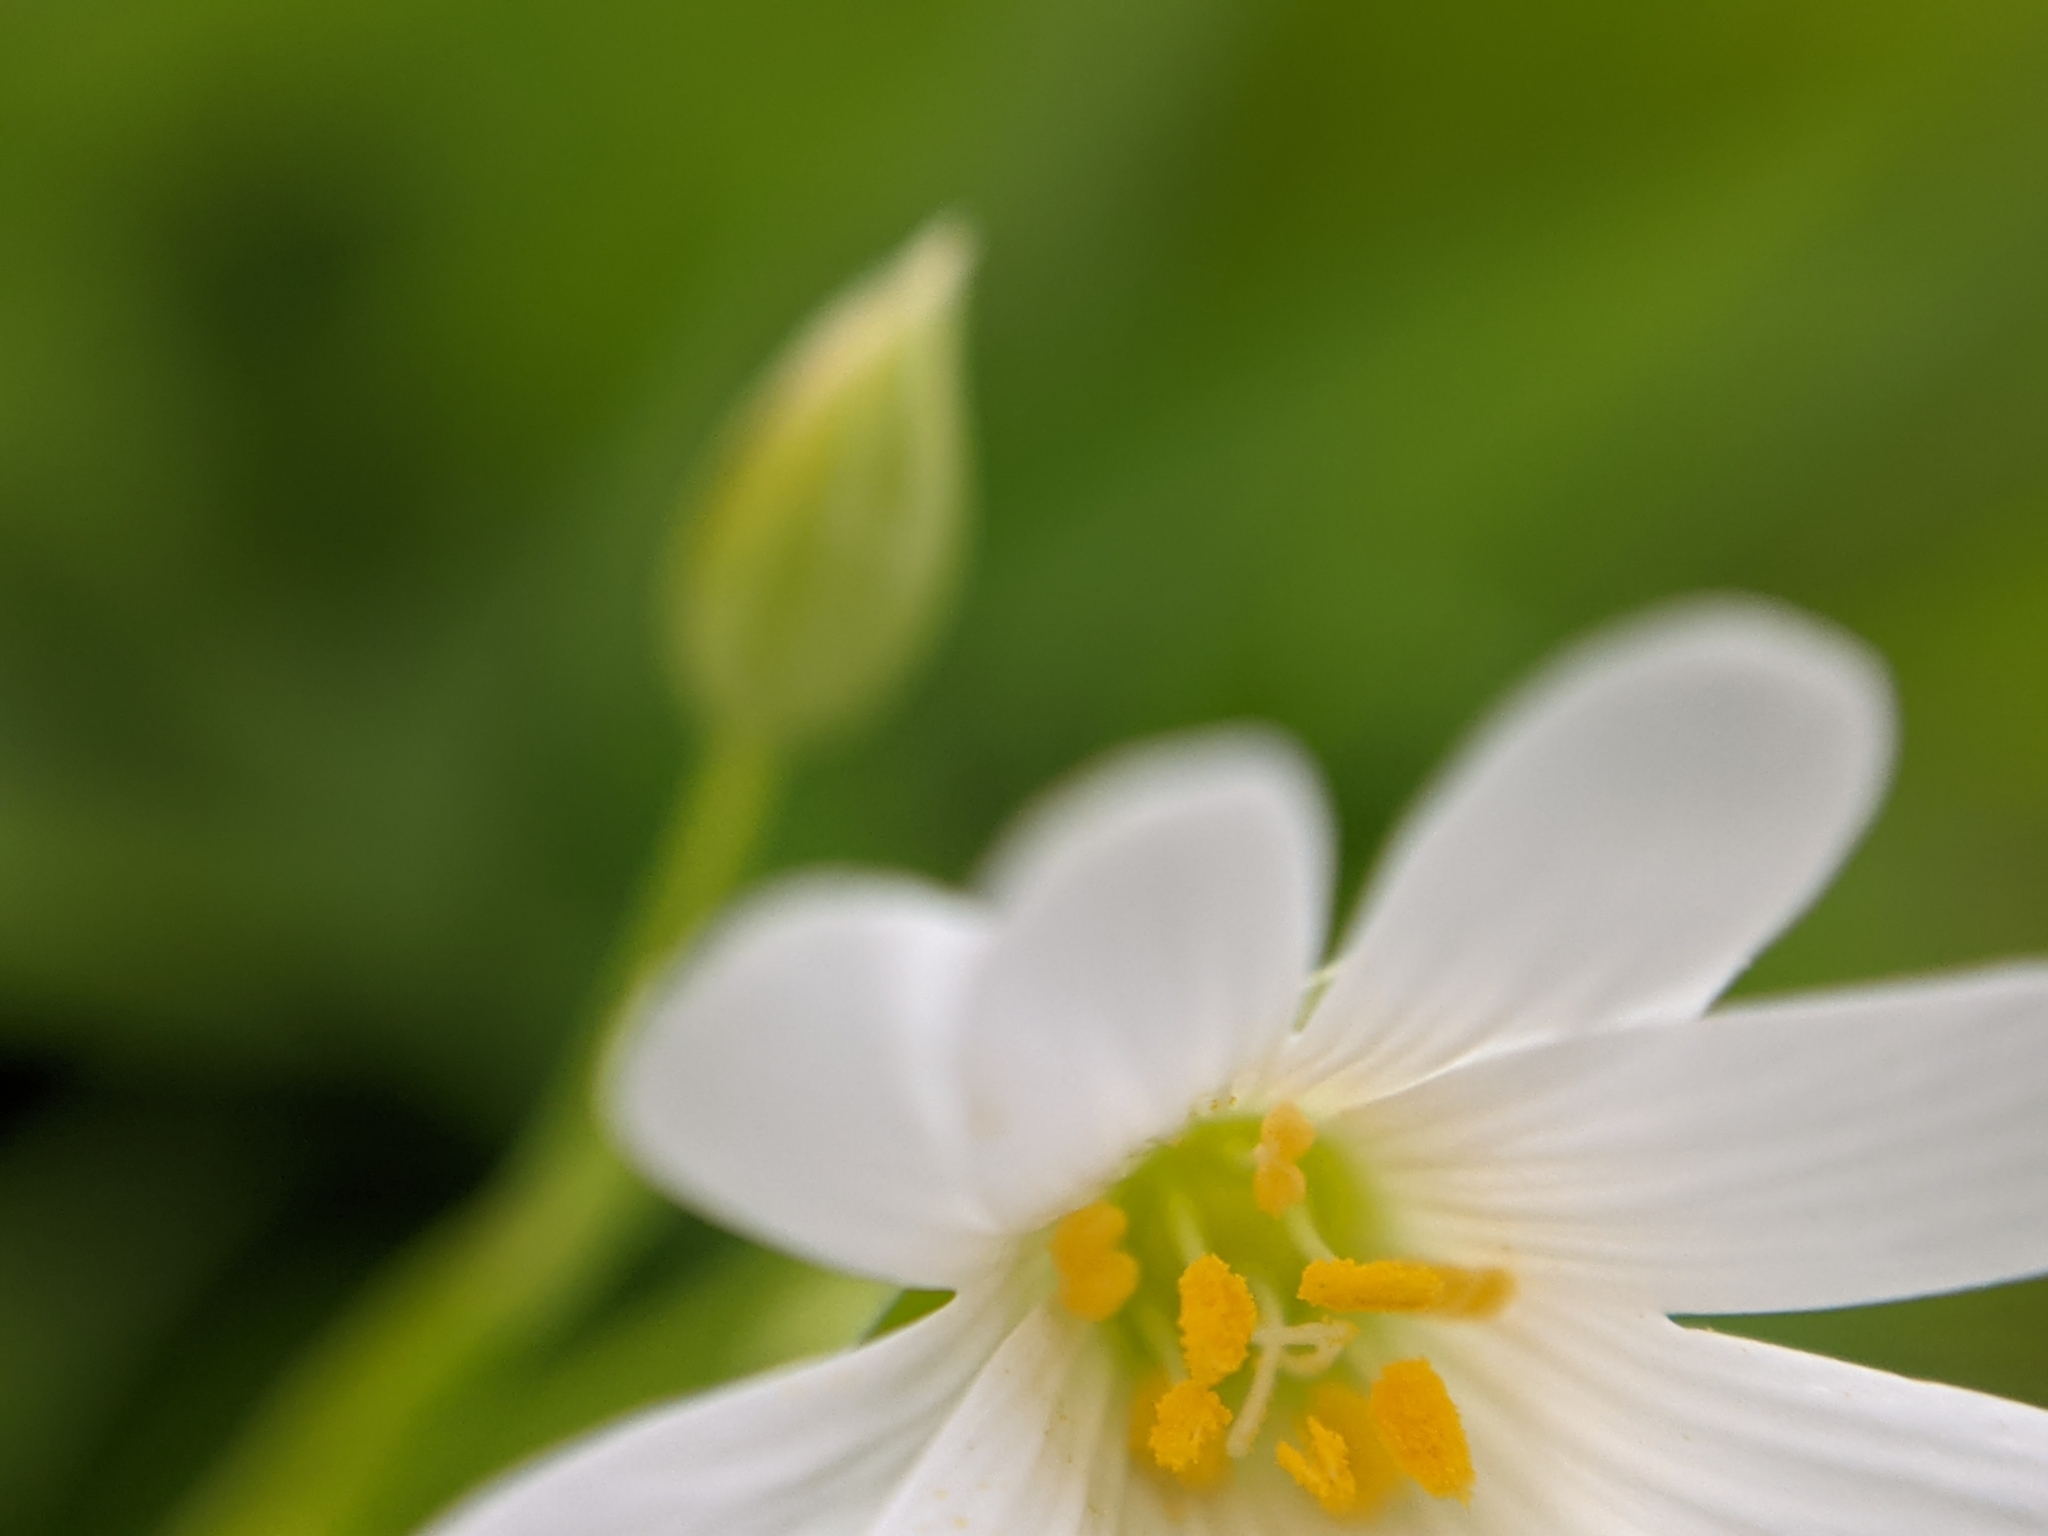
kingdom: Plantae
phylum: Tracheophyta
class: Magnoliopsida
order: Caryophyllales
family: Caryophyllaceae
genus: Rabelera
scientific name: Rabelera holostea
